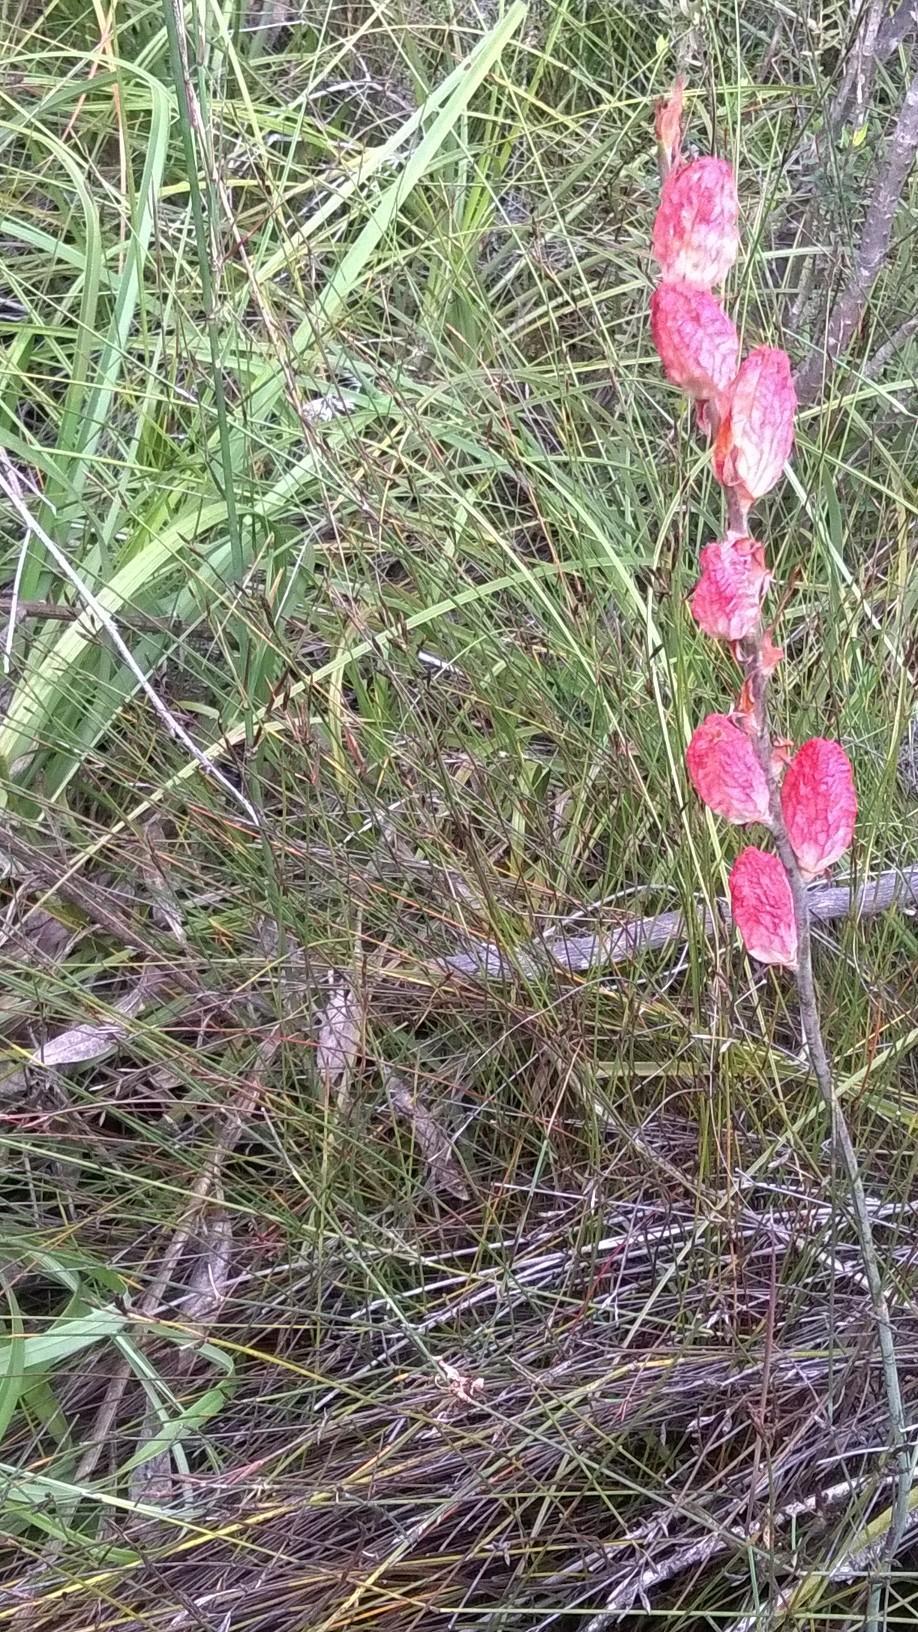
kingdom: Plantae
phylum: Tracheophyta
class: Liliopsida
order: Asparagales
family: Iridaceae
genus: Tritoniopsis
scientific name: Tritoniopsis caffra
